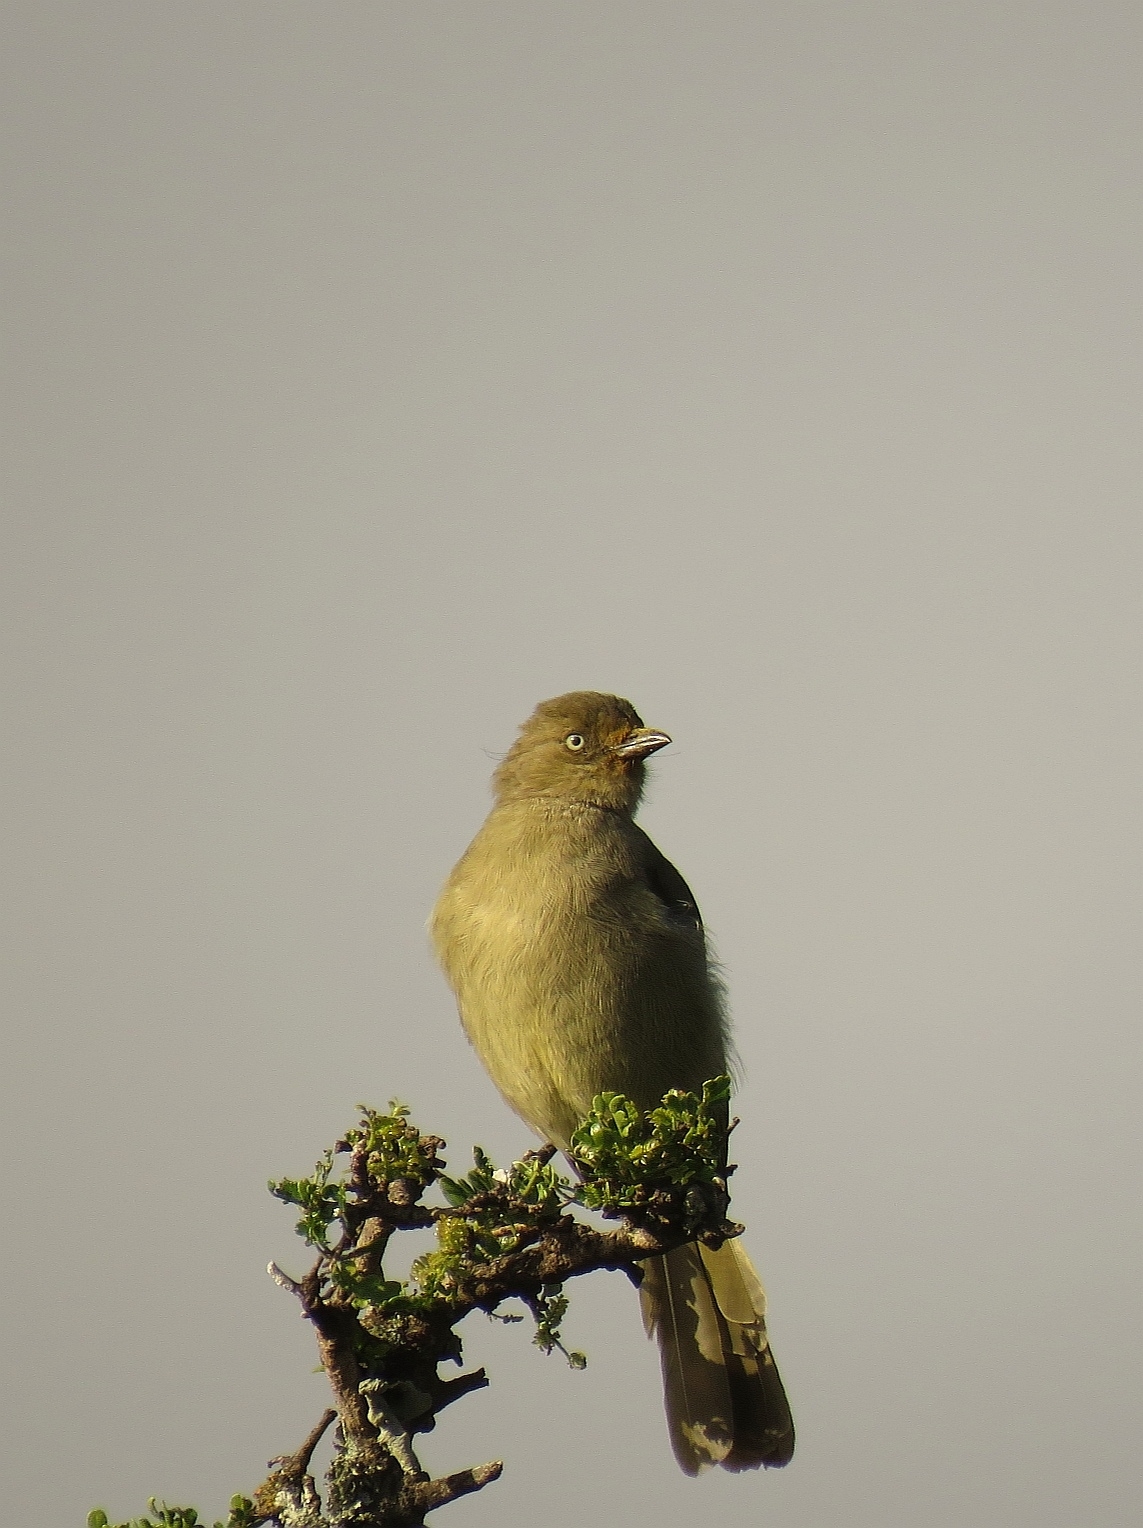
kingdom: Animalia
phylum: Chordata
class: Aves
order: Passeriformes
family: Pycnonotidae
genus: Andropadus
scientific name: Andropadus importunus
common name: Sombre greenbul
